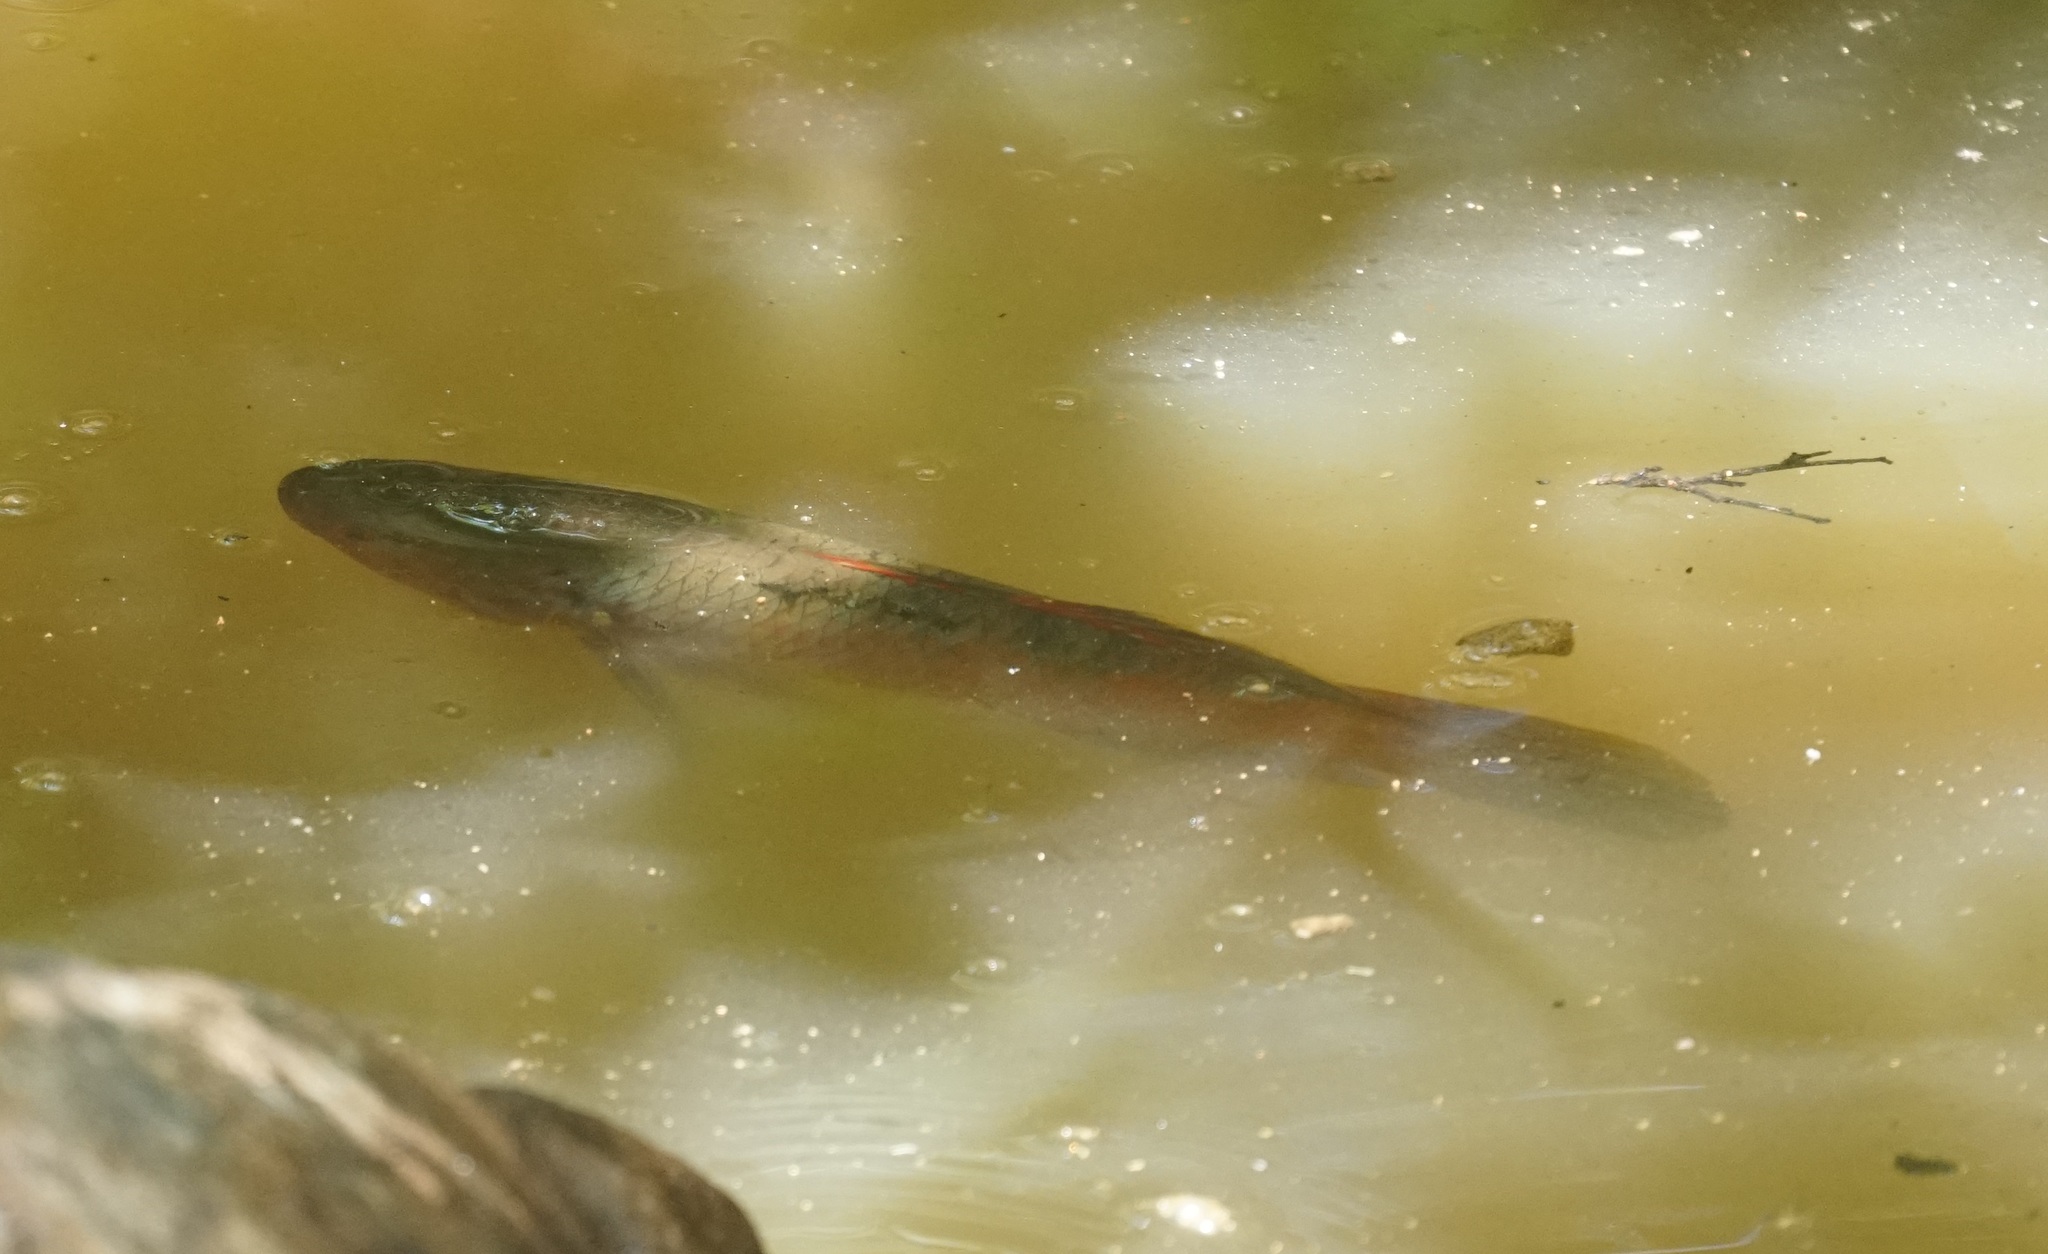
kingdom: Animalia
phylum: Chordata
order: Perciformes
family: Eleotridae
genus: Giuris
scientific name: Giuris
